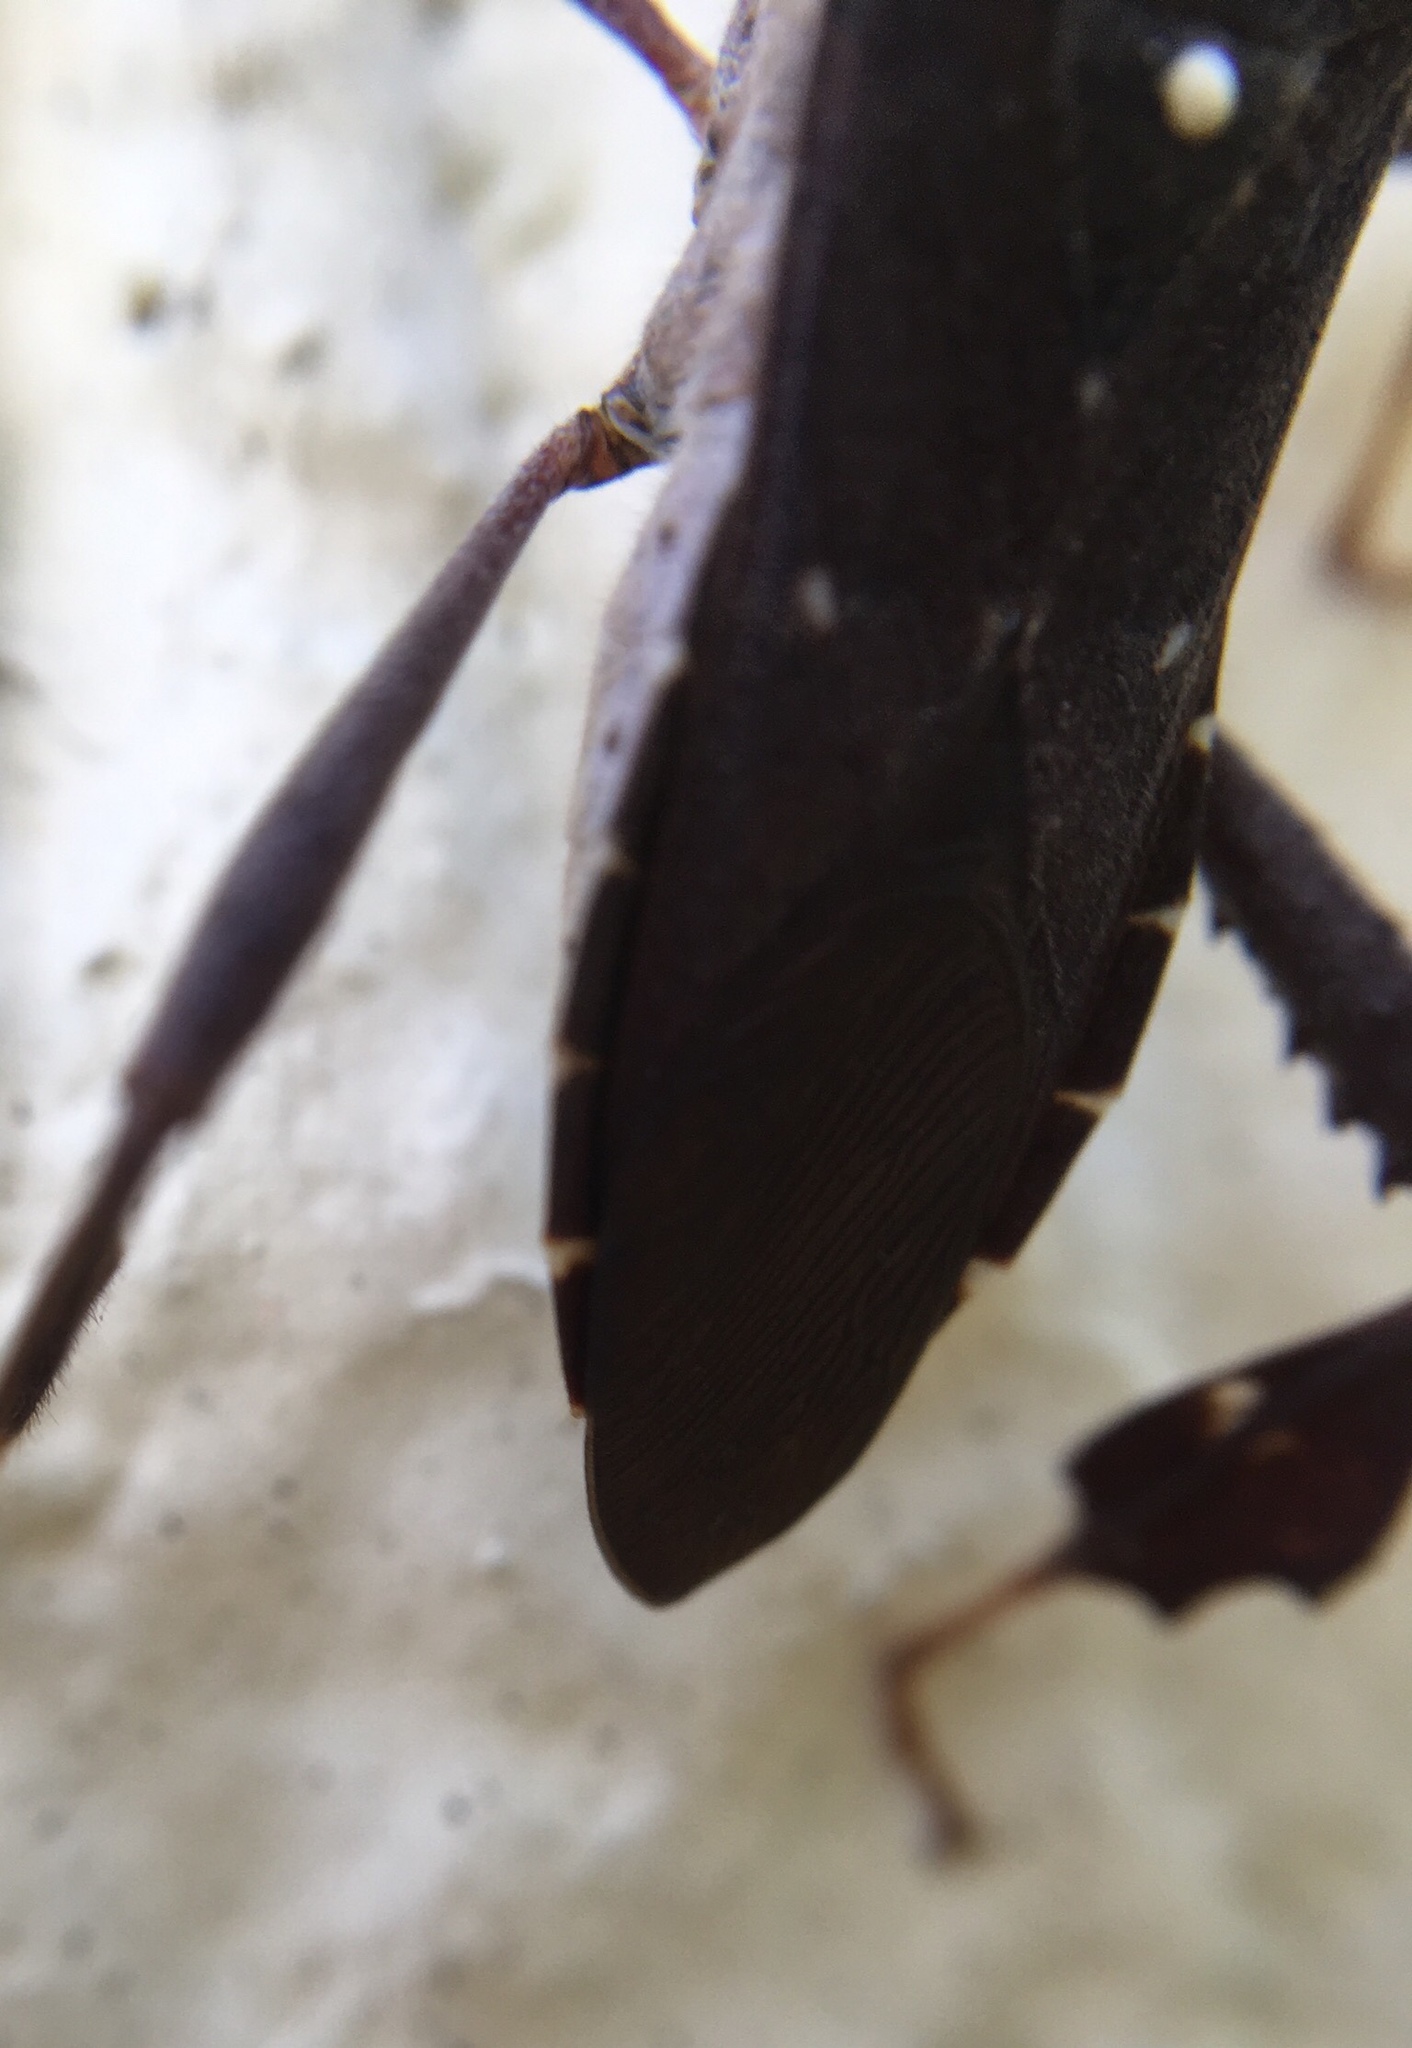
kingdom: Animalia
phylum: Arthropoda
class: Insecta
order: Hemiptera
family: Coreidae
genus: Leptoglossus
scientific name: Leptoglossus oppositus
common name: Northern leaf-footed bug
